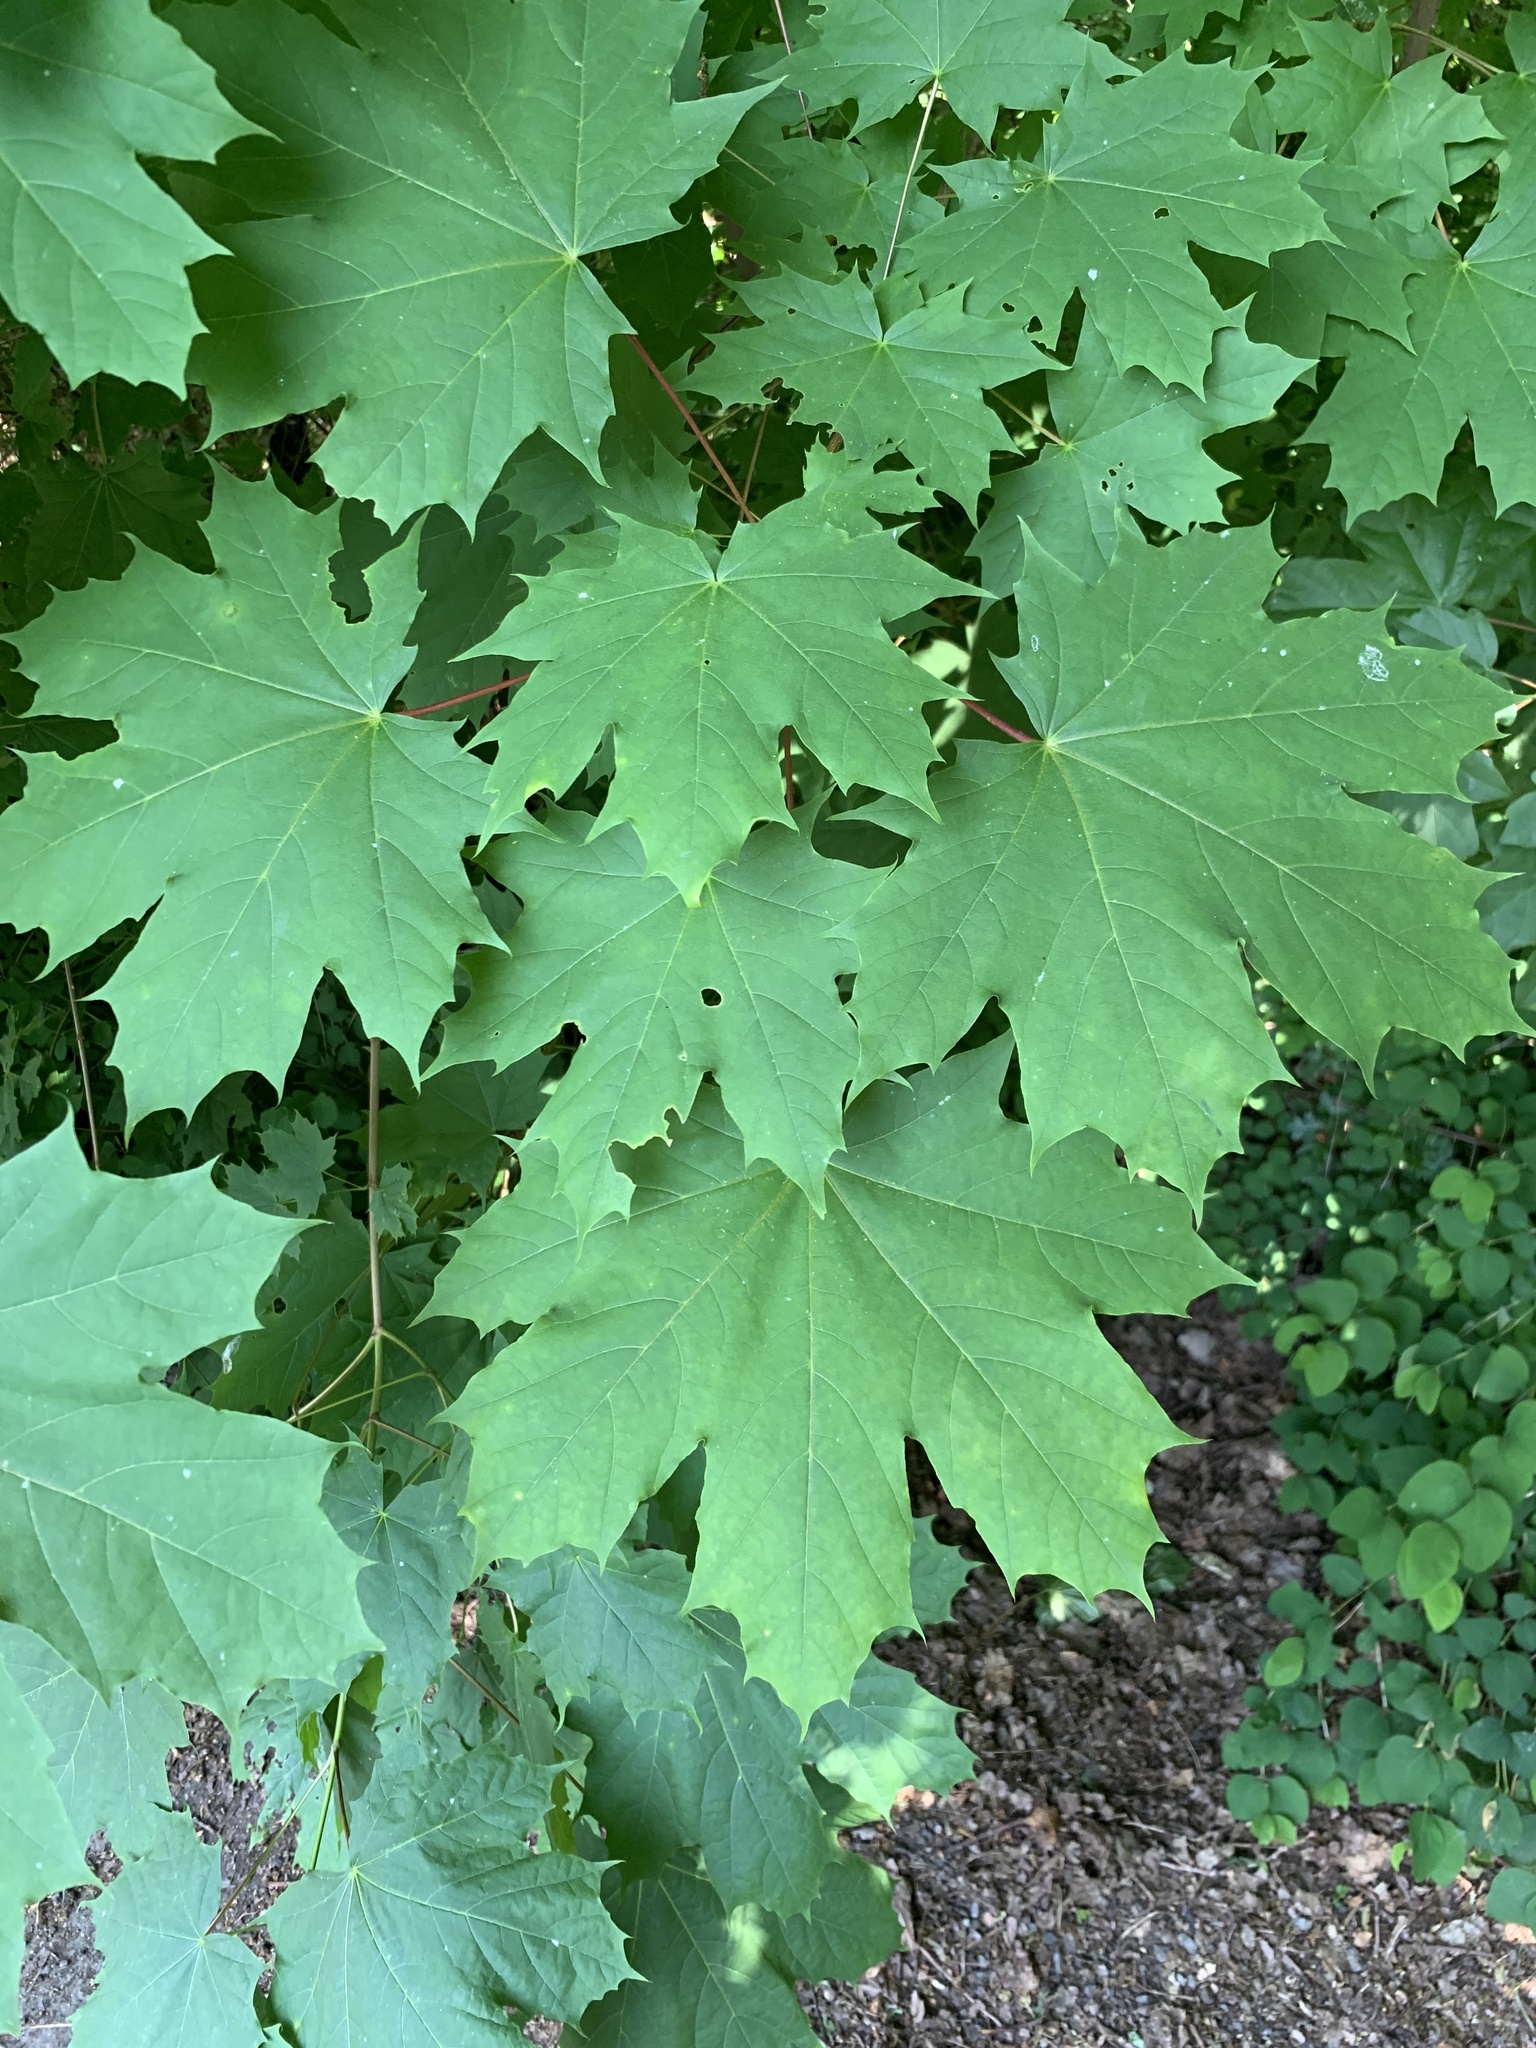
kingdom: Plantae
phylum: Tracheophyta
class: Magnoliopsida
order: Sapindales
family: Sapindaceae
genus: Acer
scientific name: Acer platanoides
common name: Norway maple
